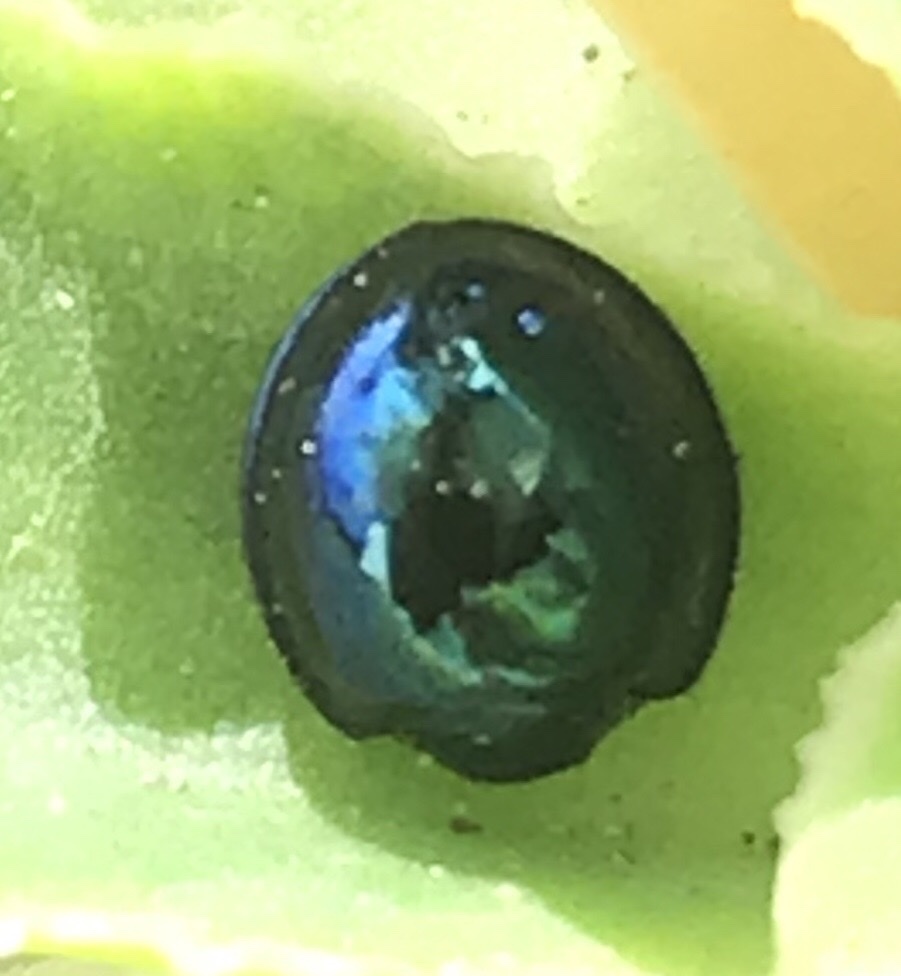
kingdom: Animalia
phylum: Arthropoda
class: Insecta
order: Coleoptera
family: Coccinellidae
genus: Halmus
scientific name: Halmus chalybeus
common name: Steel blue ladybird beetle
